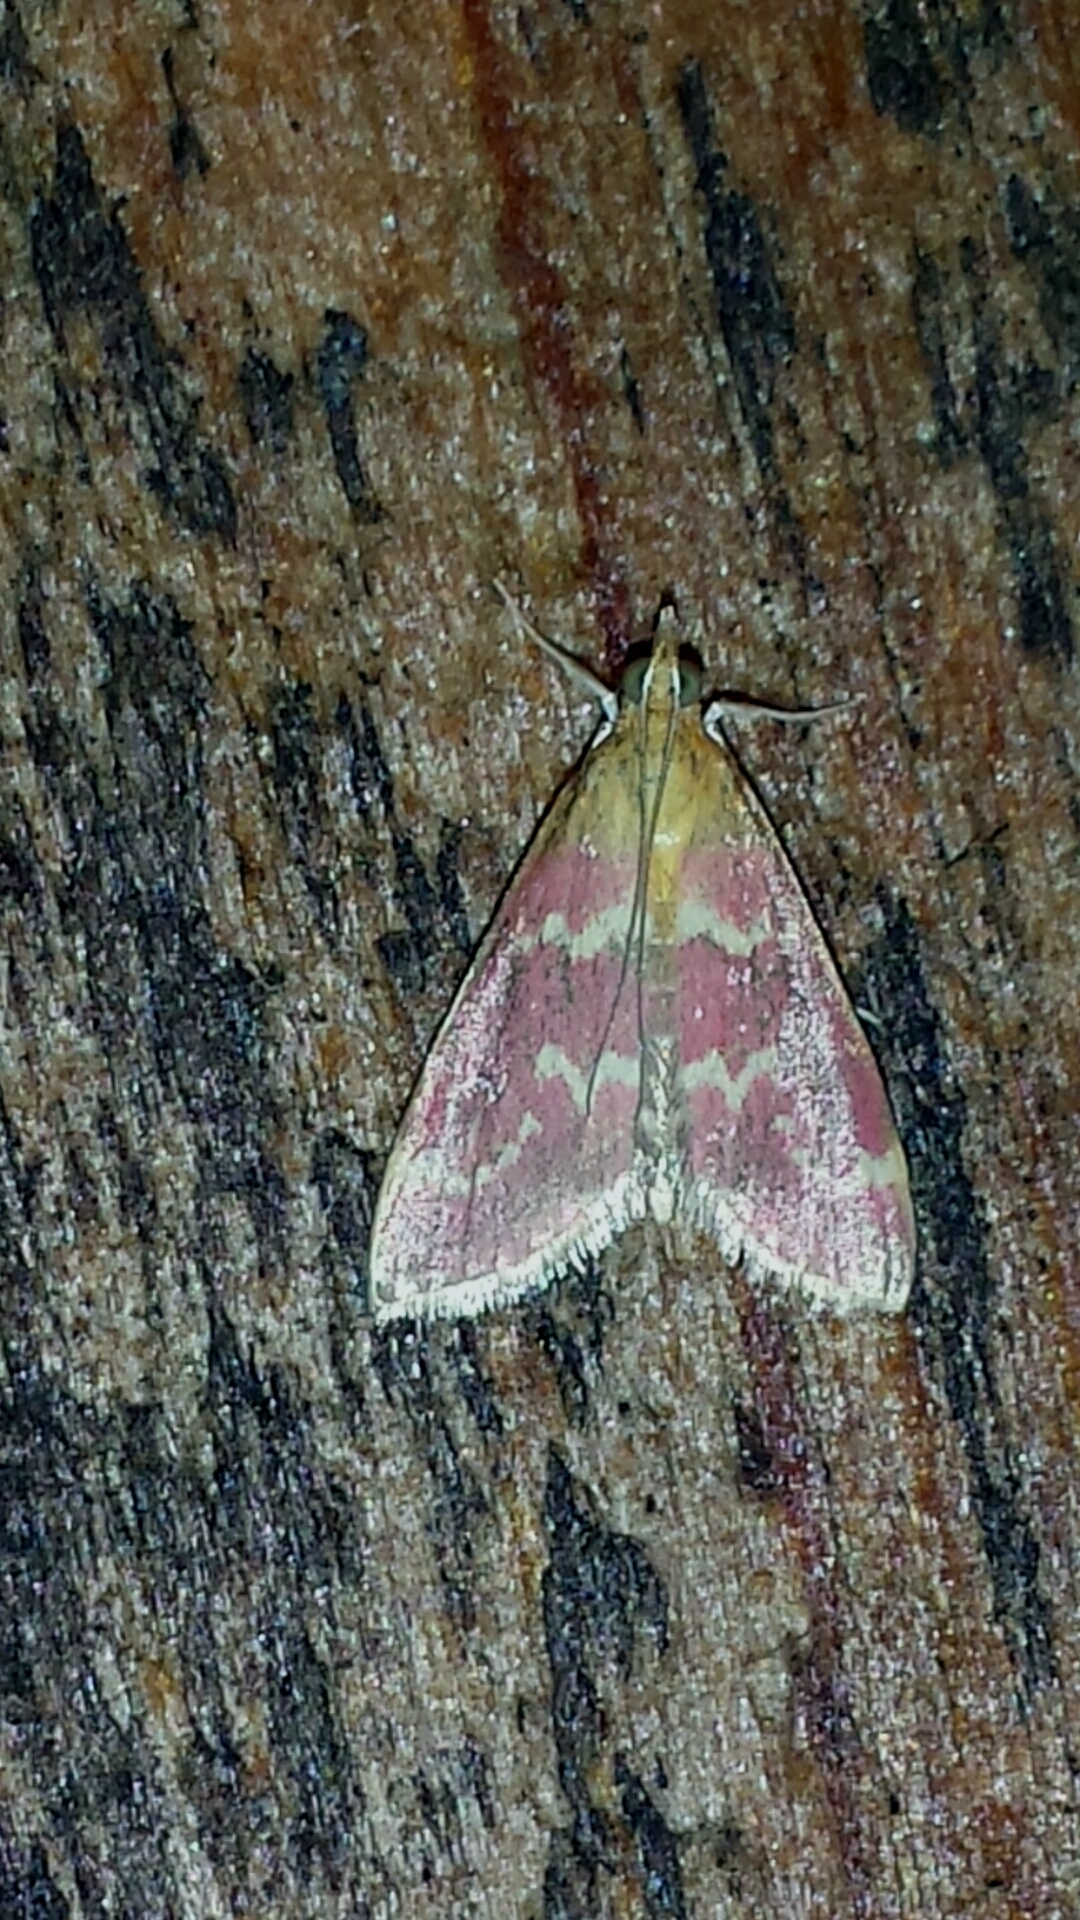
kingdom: Animalia
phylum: Arthropoda
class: Insecta
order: Lepidoptera
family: Crambidae
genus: Pyrausta
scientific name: Pyrausta signatalis
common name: Raspberry pyrausta moth
